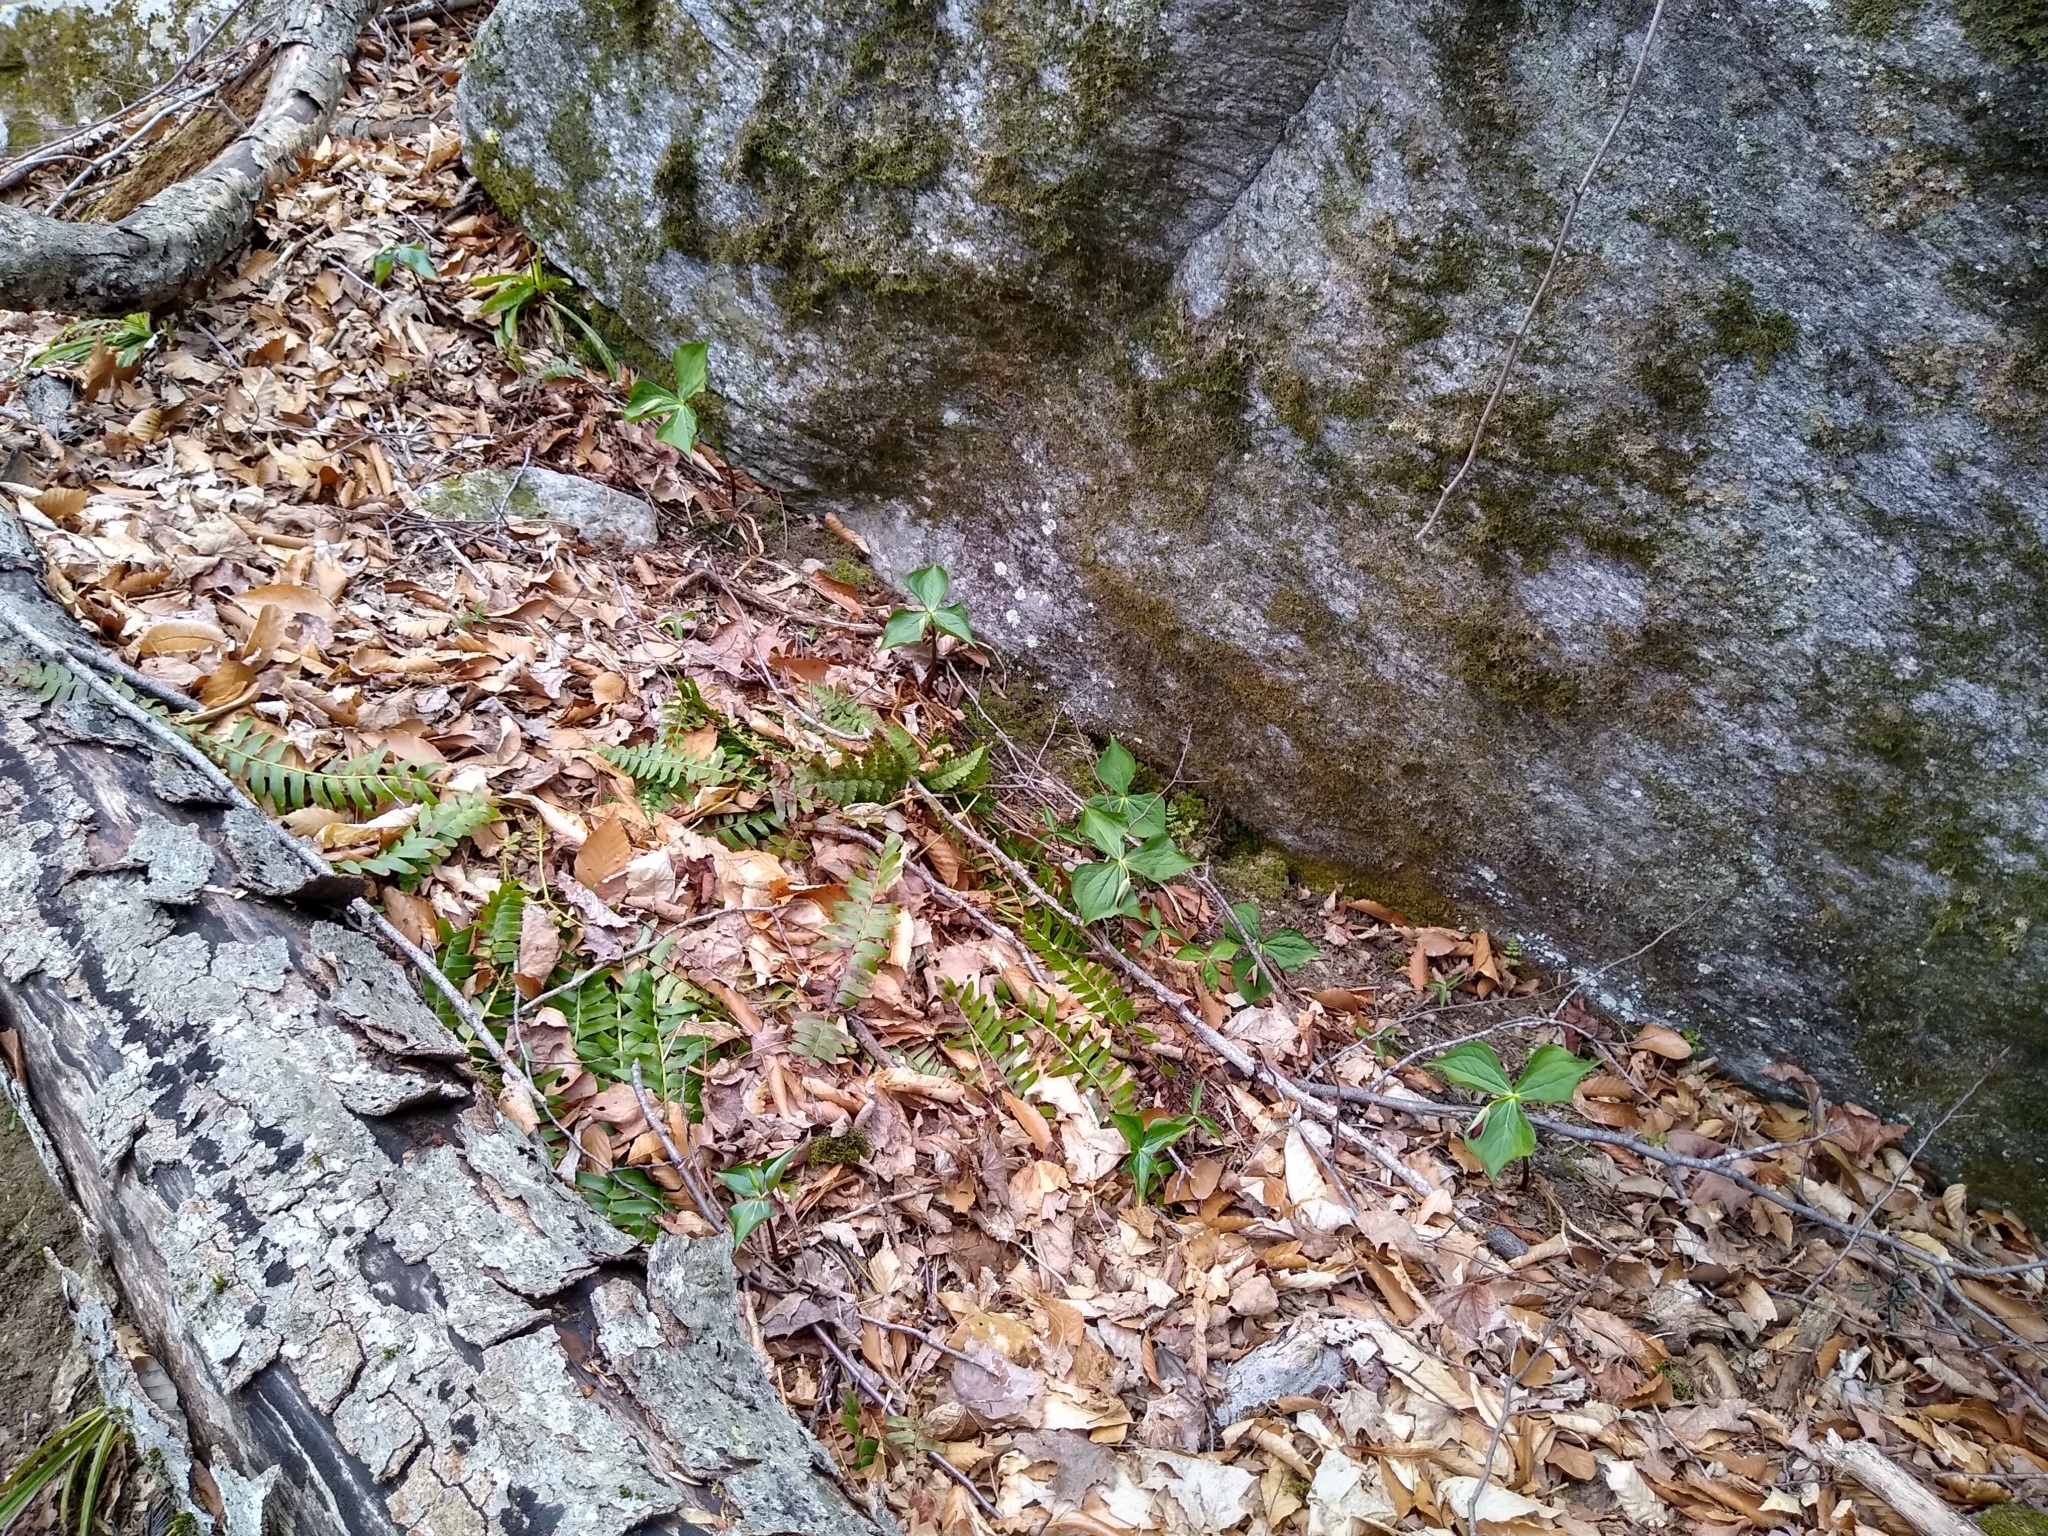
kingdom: Plantae
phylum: Tracheophyta
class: Liliopsida
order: Liliales
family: Melanthiaceae
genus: Trillium
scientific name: Trillium erectum
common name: Purple trillium
